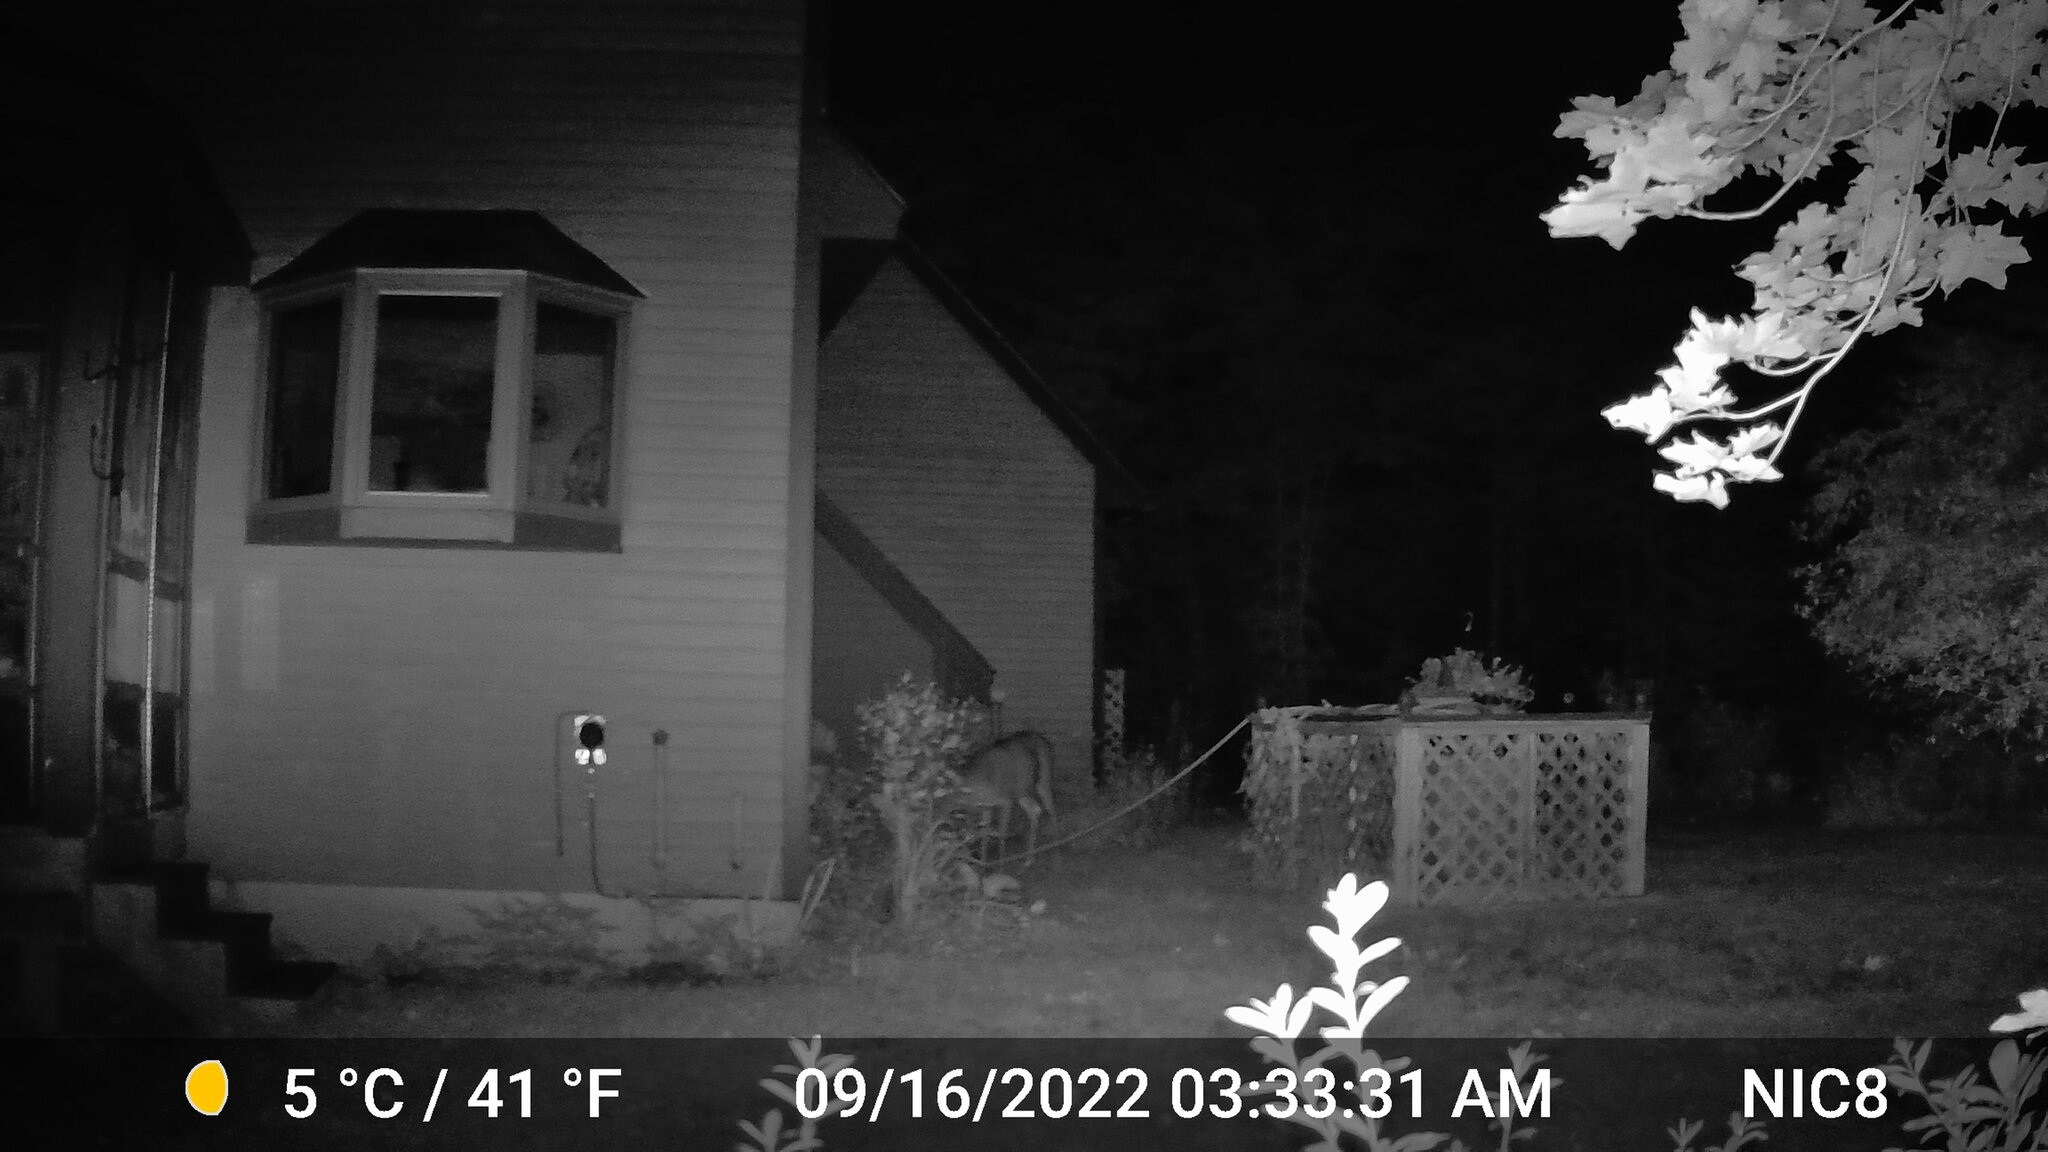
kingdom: Animalia
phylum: Chordata
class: Mammalia
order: Artiodactyla
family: Cervidae
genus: Odocoileus
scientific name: Odocoileus virginianus
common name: White-tailed deer
